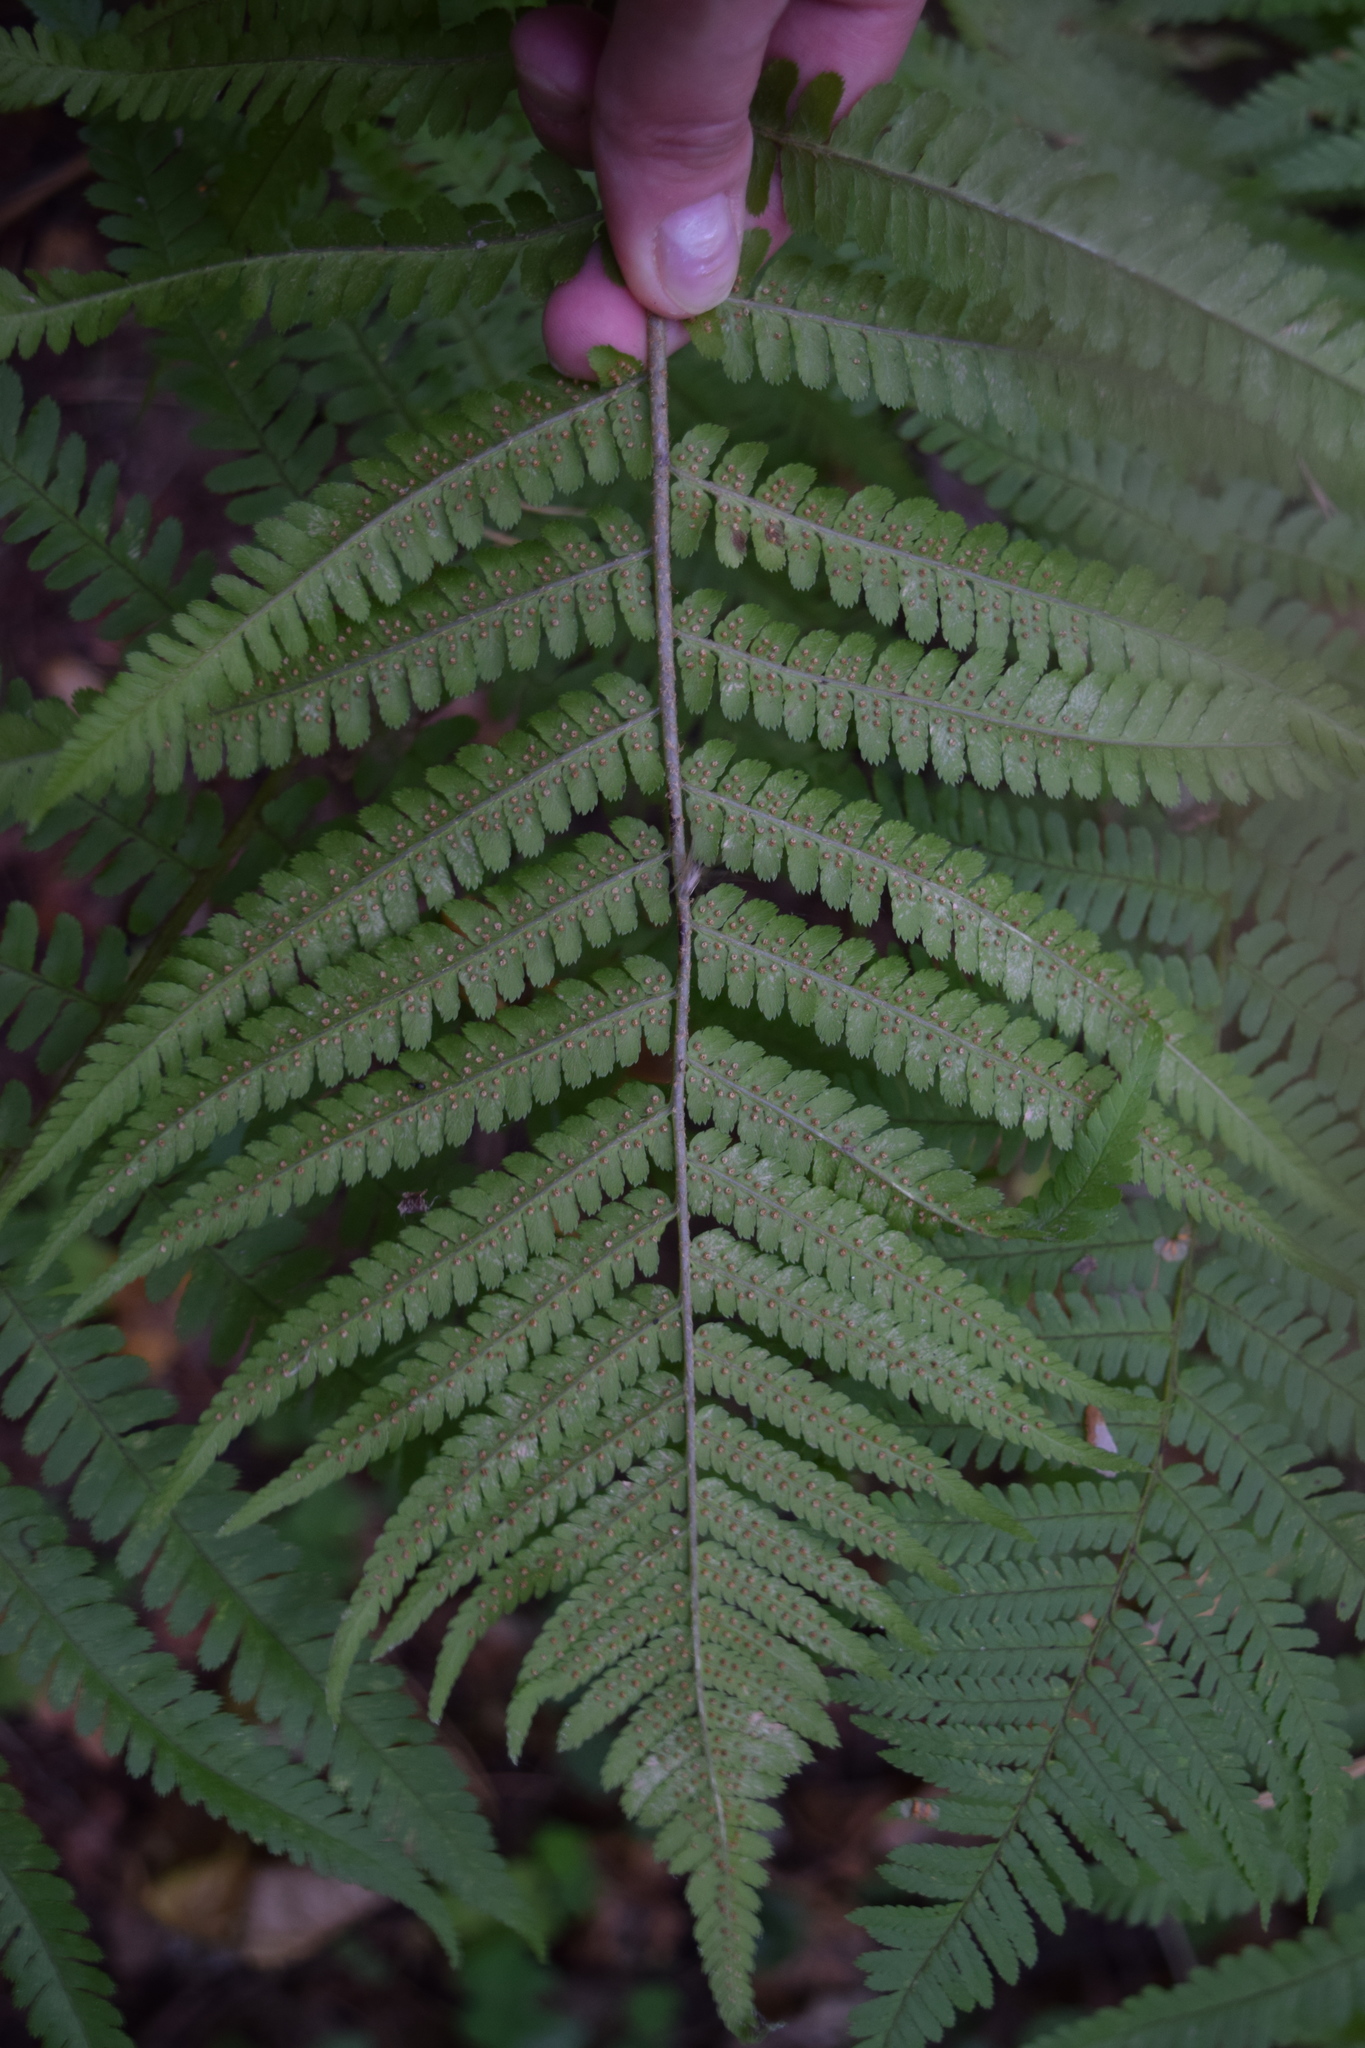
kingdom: Plantae
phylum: Tracheophyta
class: Polypodiopsida
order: Polypodiales
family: Dryopteridaceae
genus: Dryopteris
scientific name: Dryopteris filix-mas
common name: Male fern
